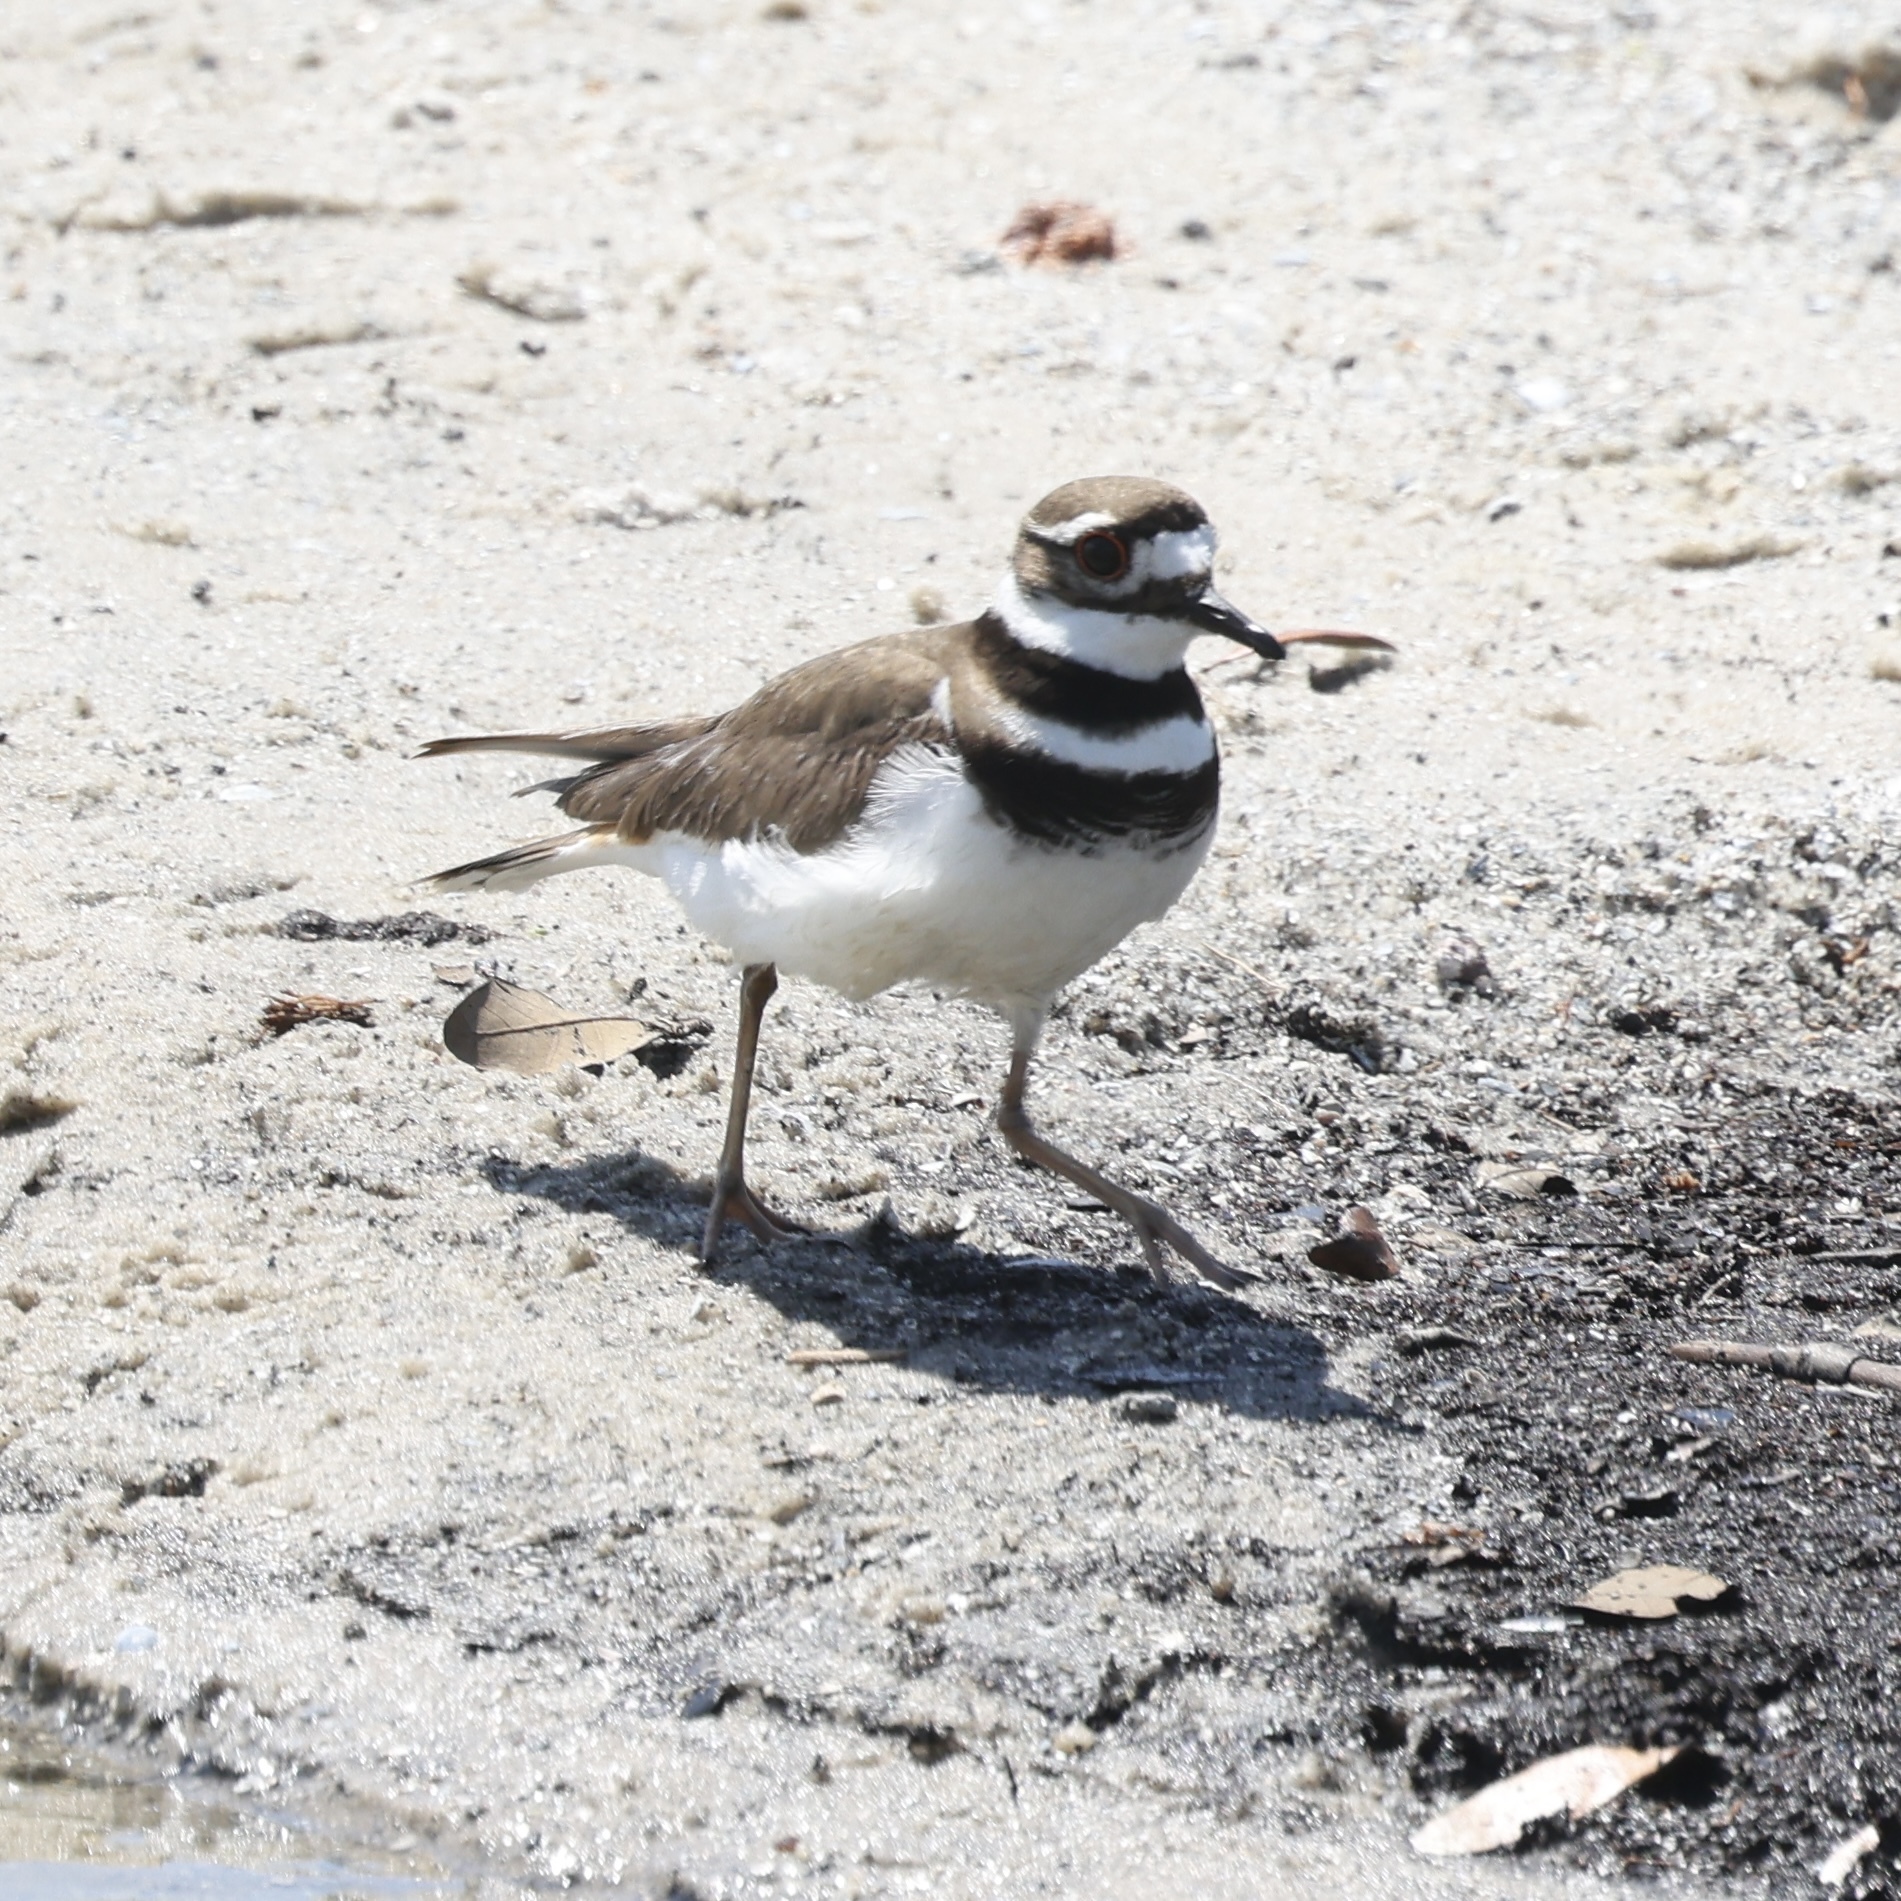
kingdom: Animalia
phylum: Chordata
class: Aves
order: Charadriiformes
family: Charadriidae
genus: Charadrius
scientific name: Charadrius vociferus
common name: Killdeer
